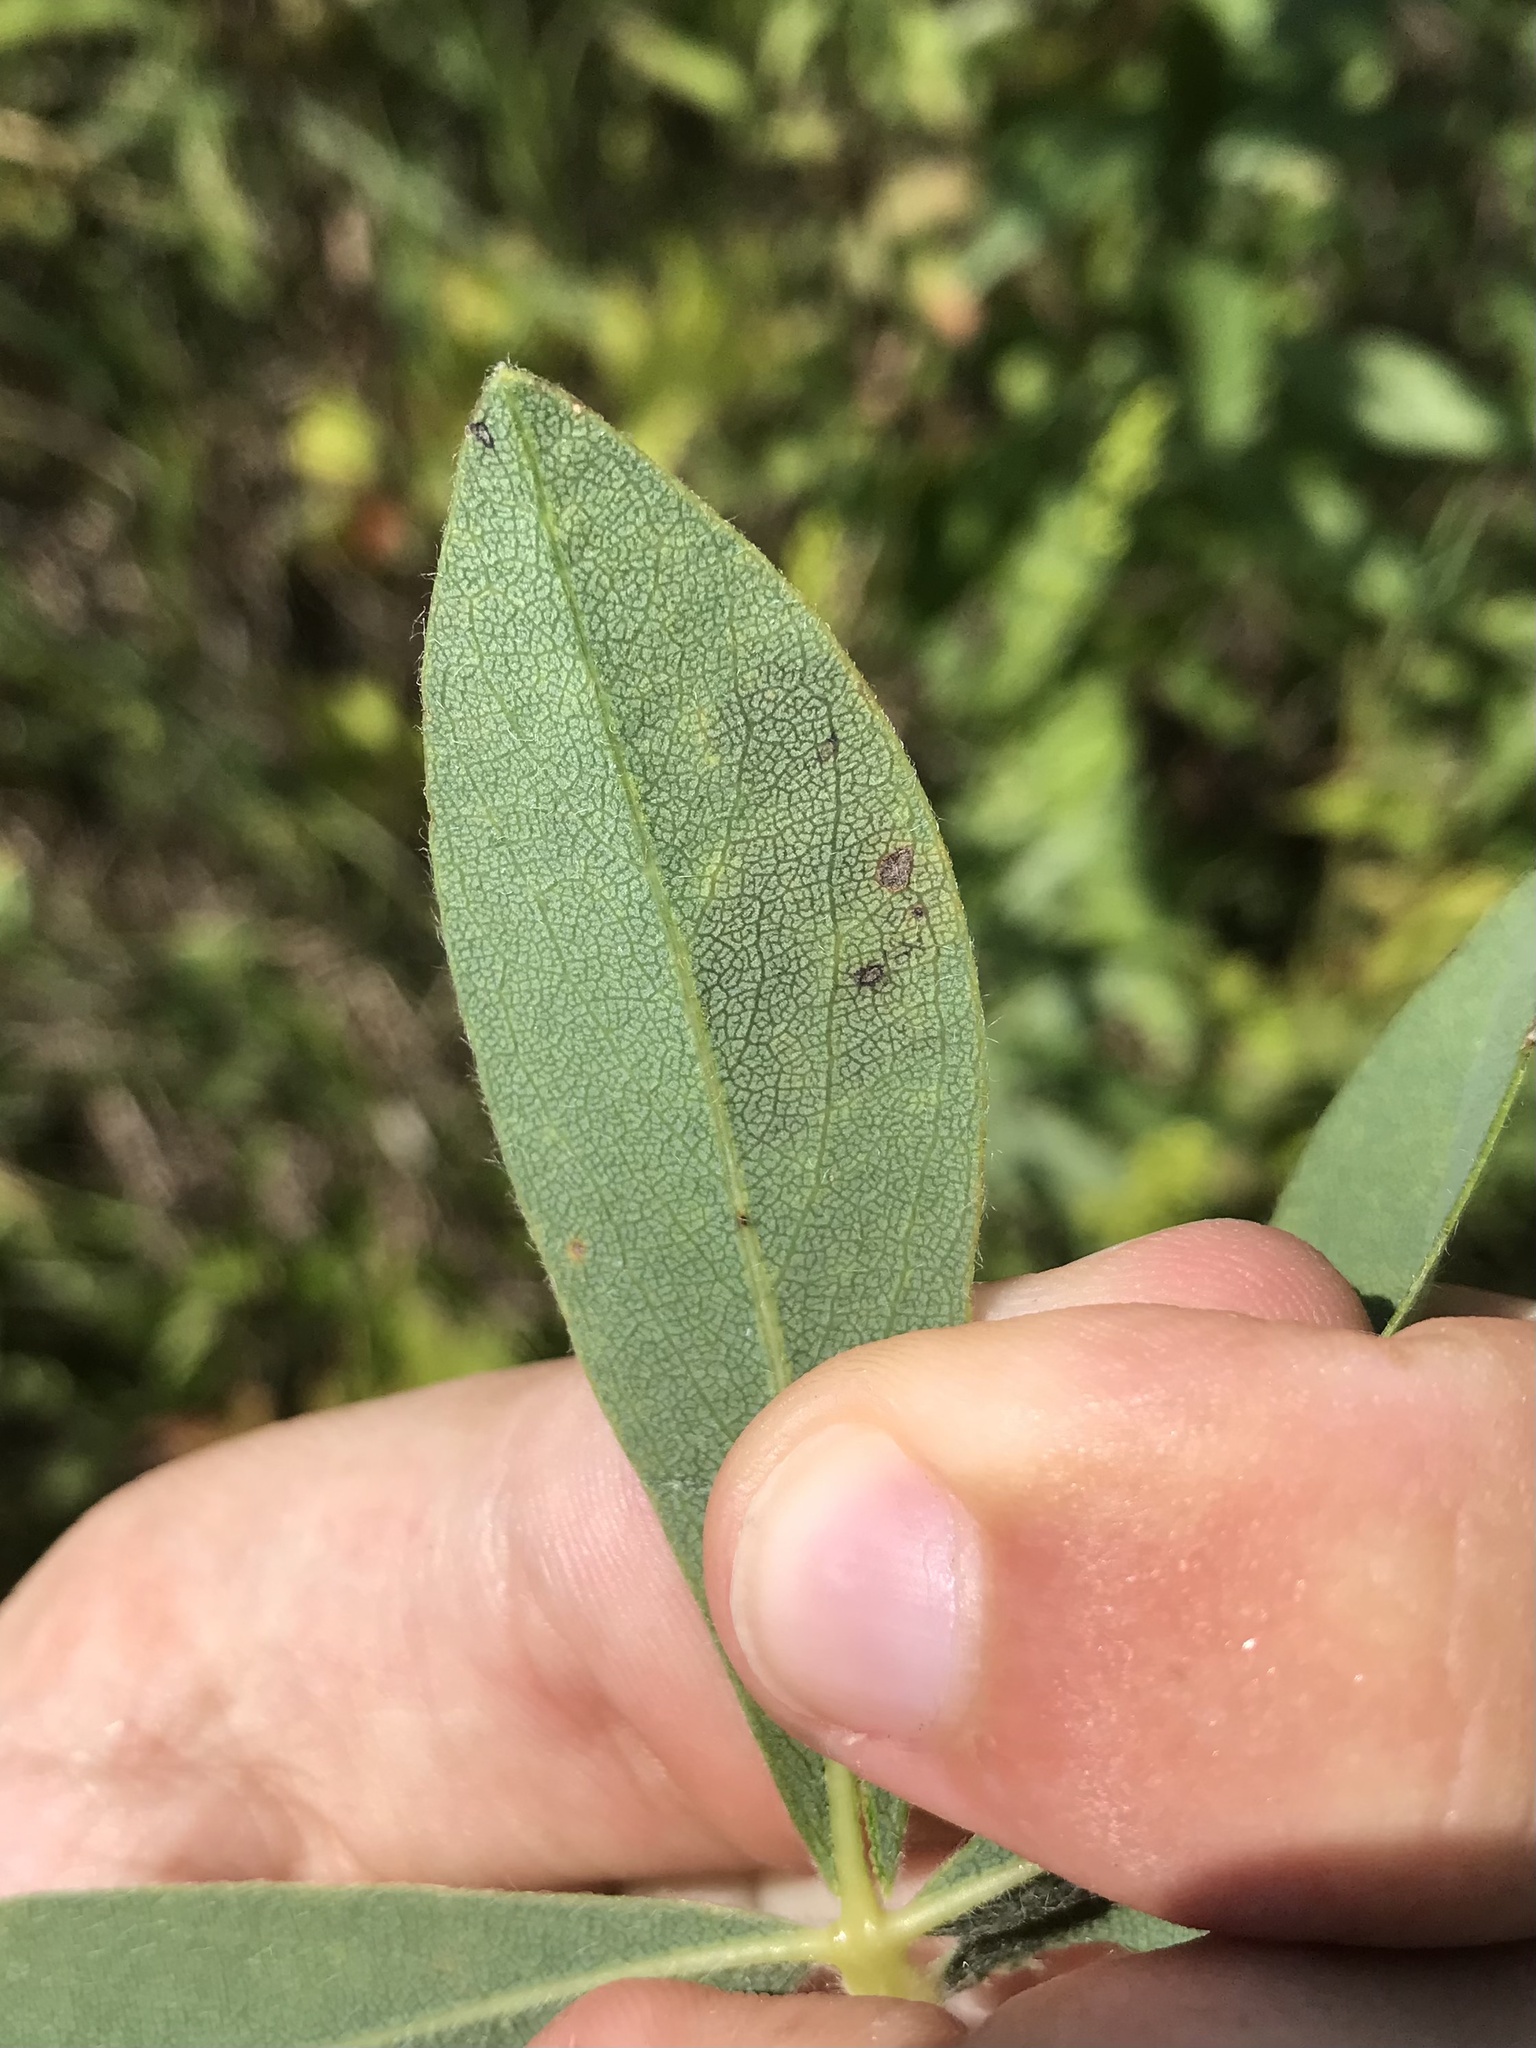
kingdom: Animalia
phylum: Arthropoda
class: Insecta
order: Diptera
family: Agromyzidae
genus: Liriomyza
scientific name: Liriomyza baptisiae
